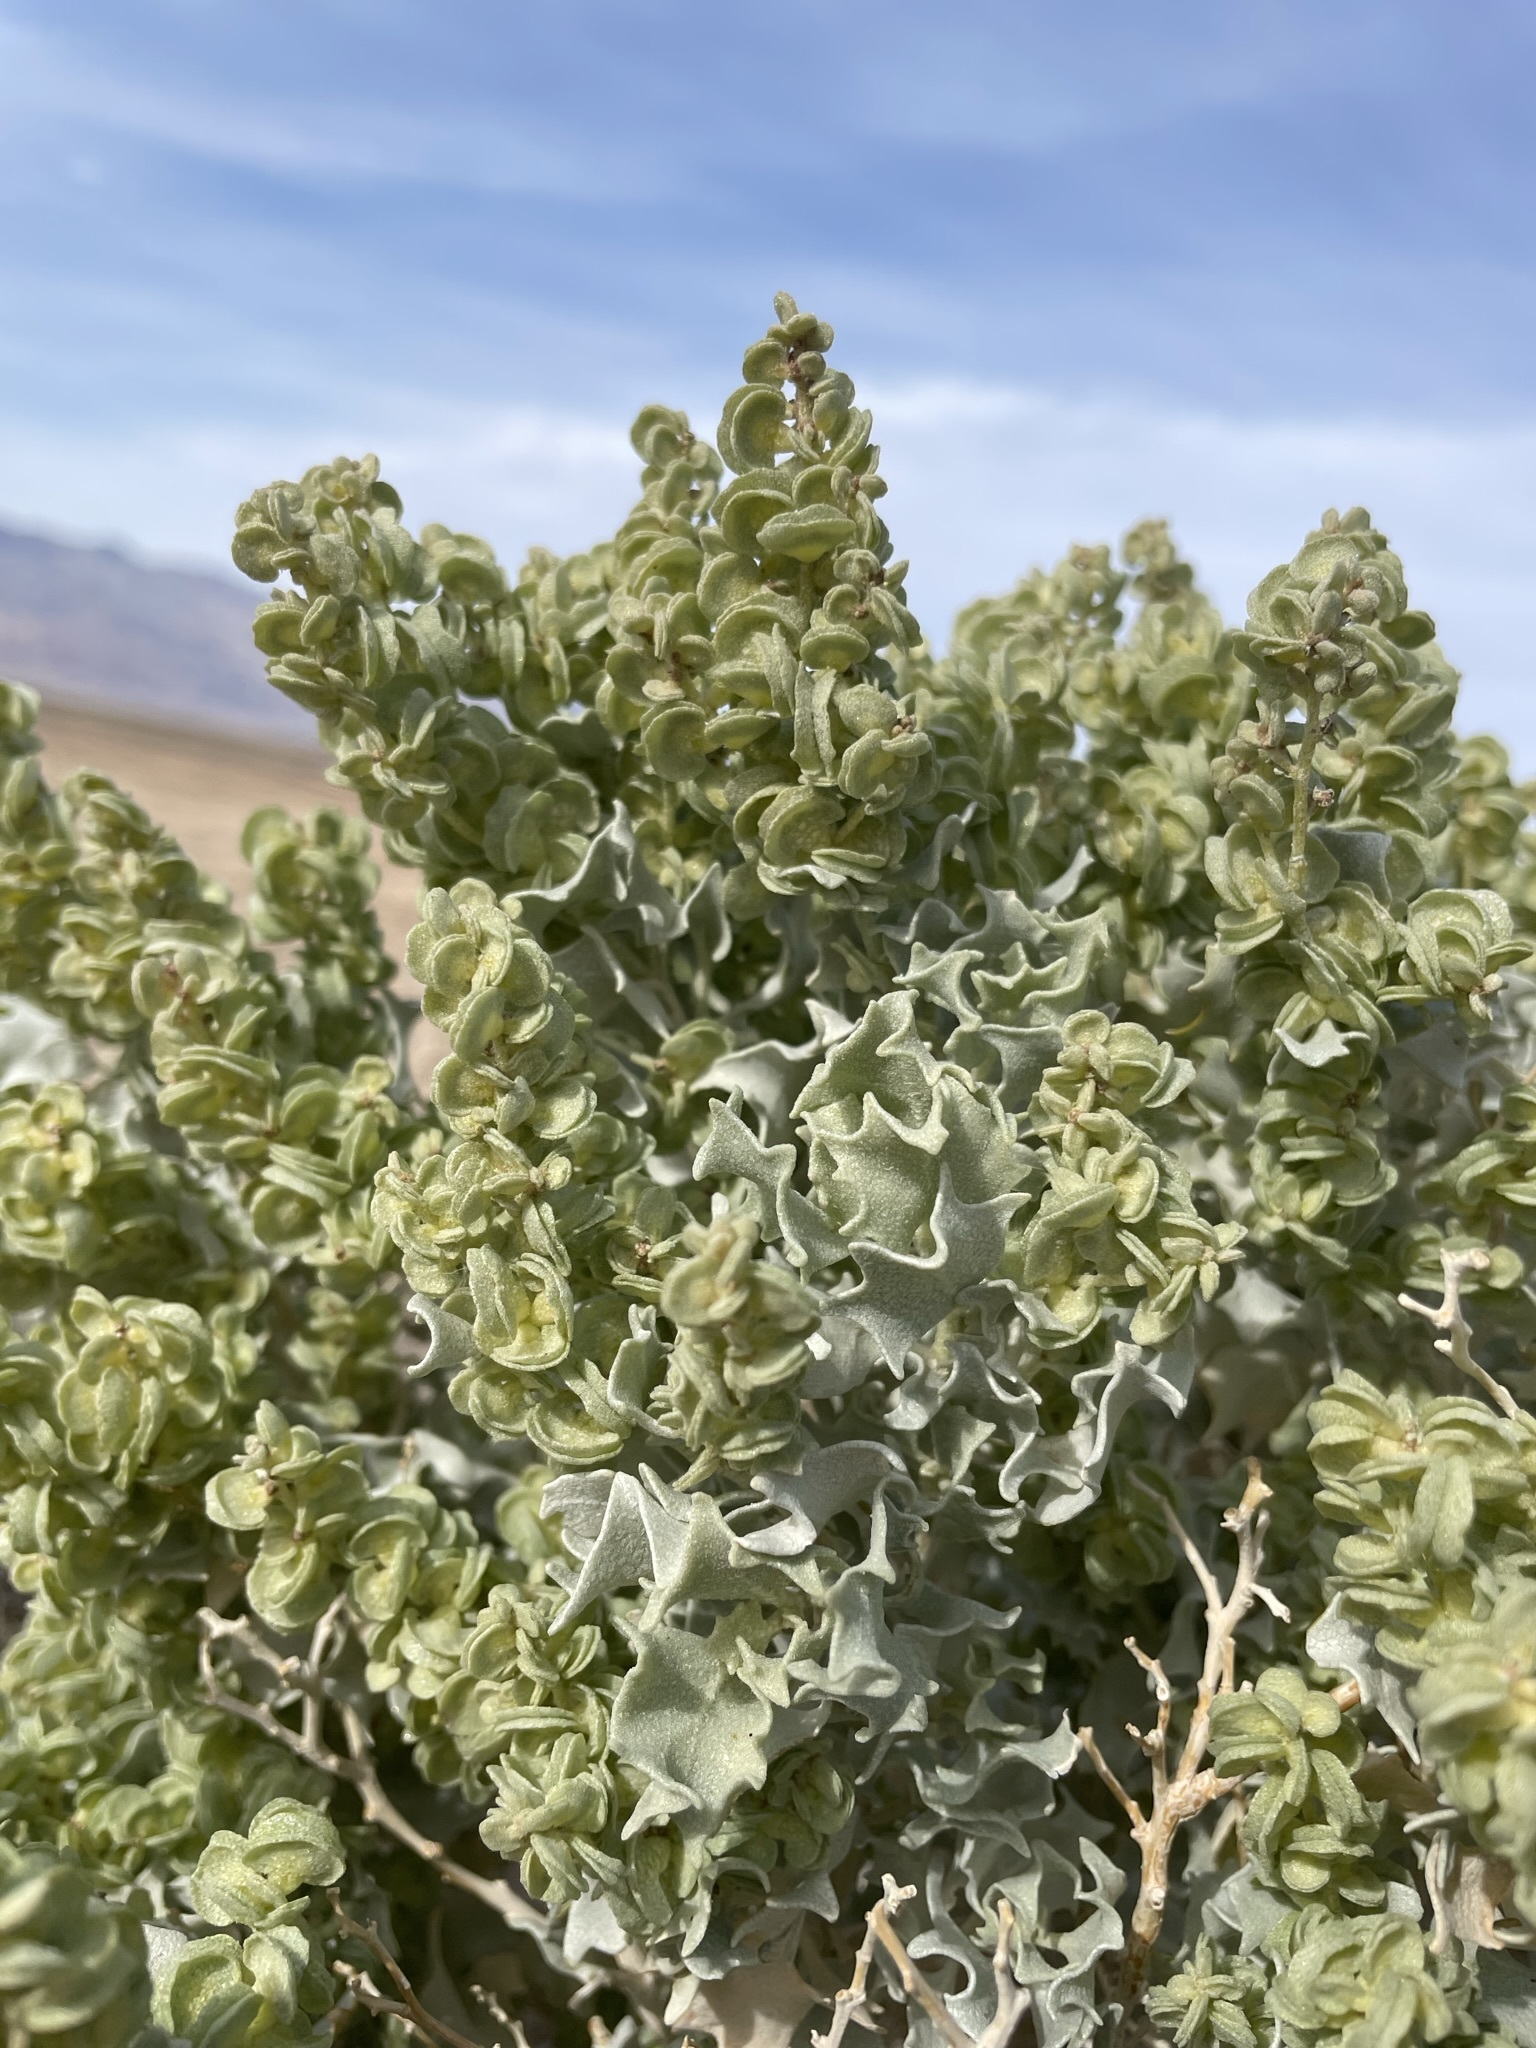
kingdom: Plantae
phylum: Tracheophyta
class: Magnoliopsida
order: Caryophyllales
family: Amaranthaceae
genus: Atriplex
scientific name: Atriplex hymenelytra
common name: Desert-holly
